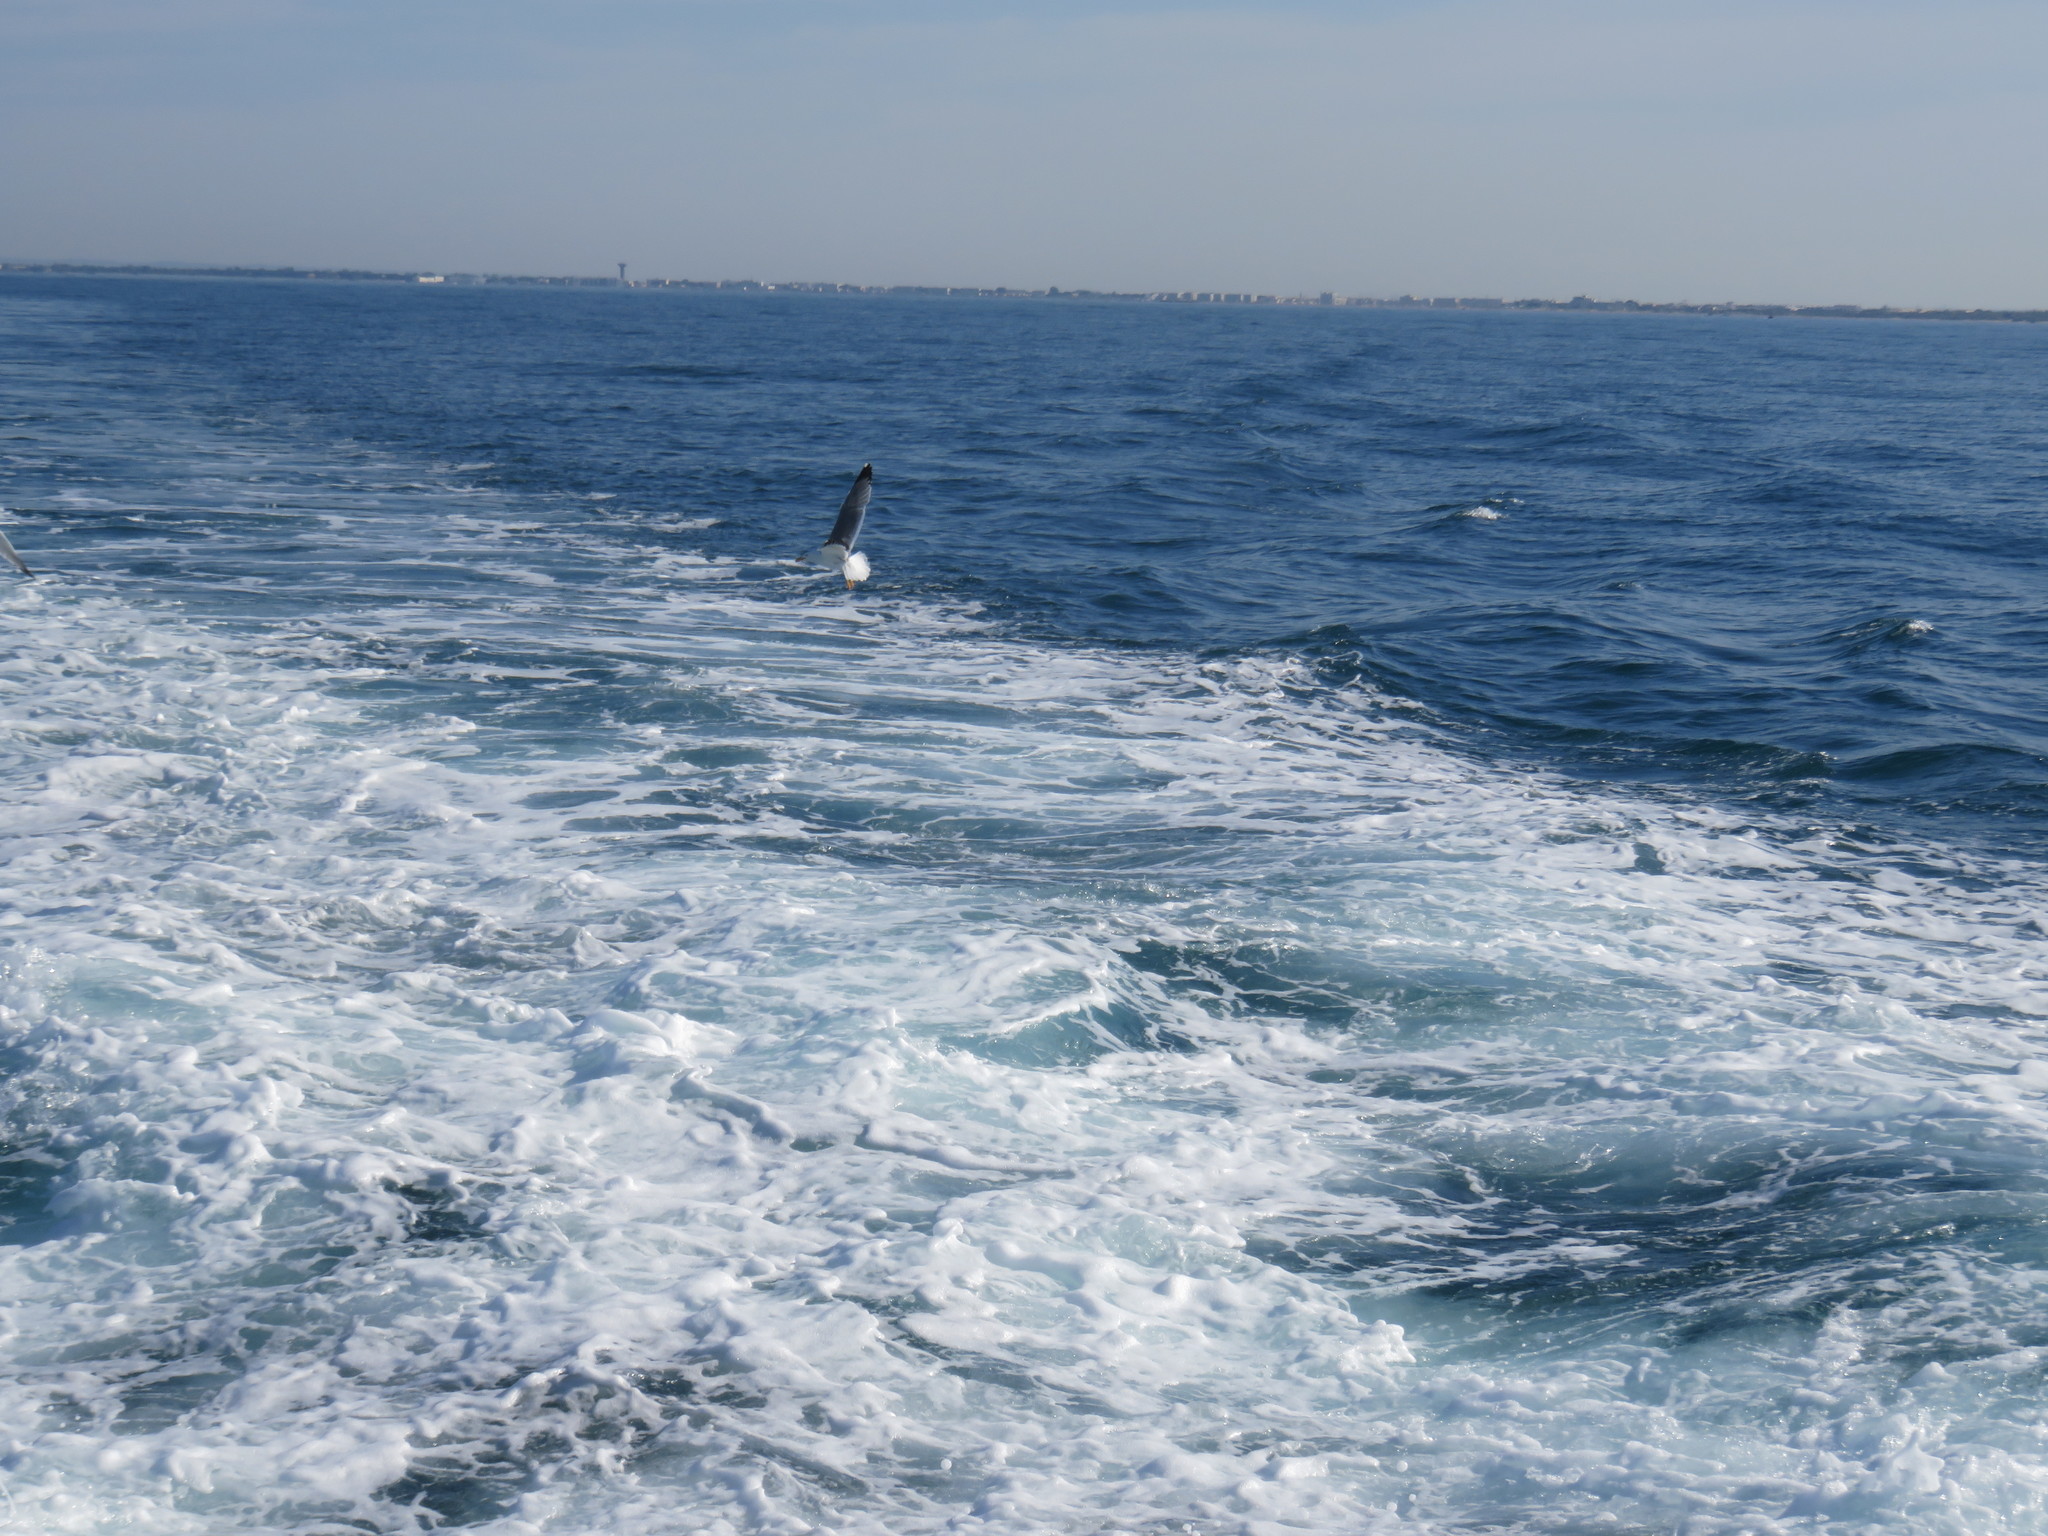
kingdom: Animalia
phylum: Chordata
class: Aves
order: Charadriiformes
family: Laridae
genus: Larus
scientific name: Larus michahellis
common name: Yellow-legged gull
